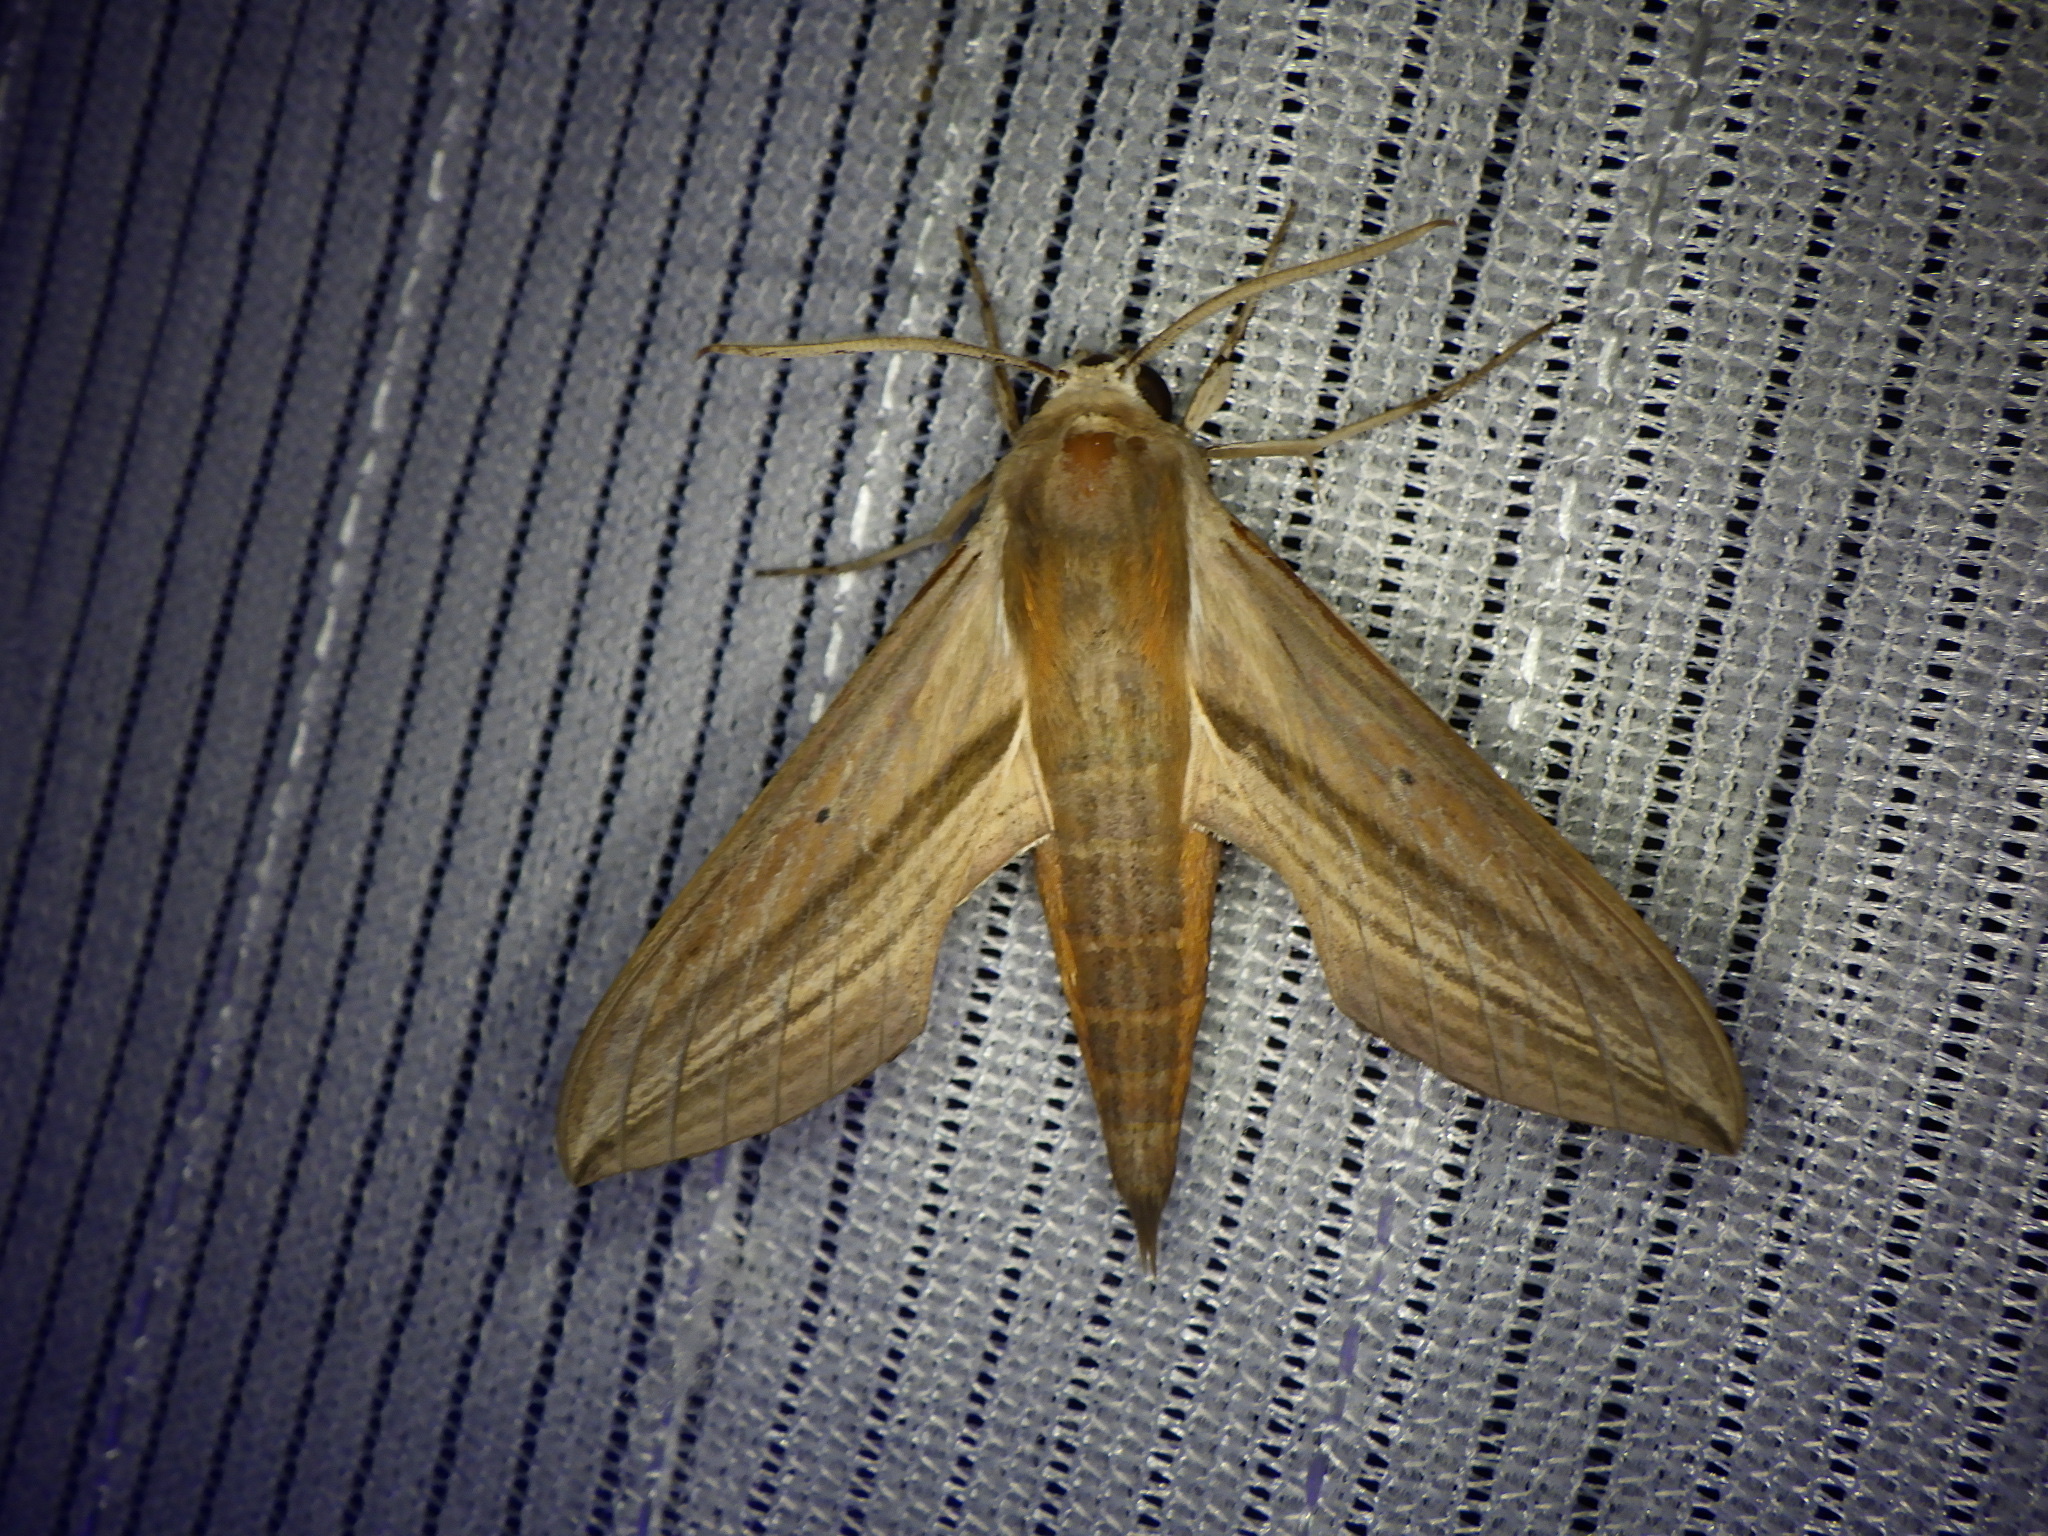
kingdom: Animalia
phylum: Arthropoda
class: Insecta
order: Lepidoptera
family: Sphingidae
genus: Theretra
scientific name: Theretra japonica
